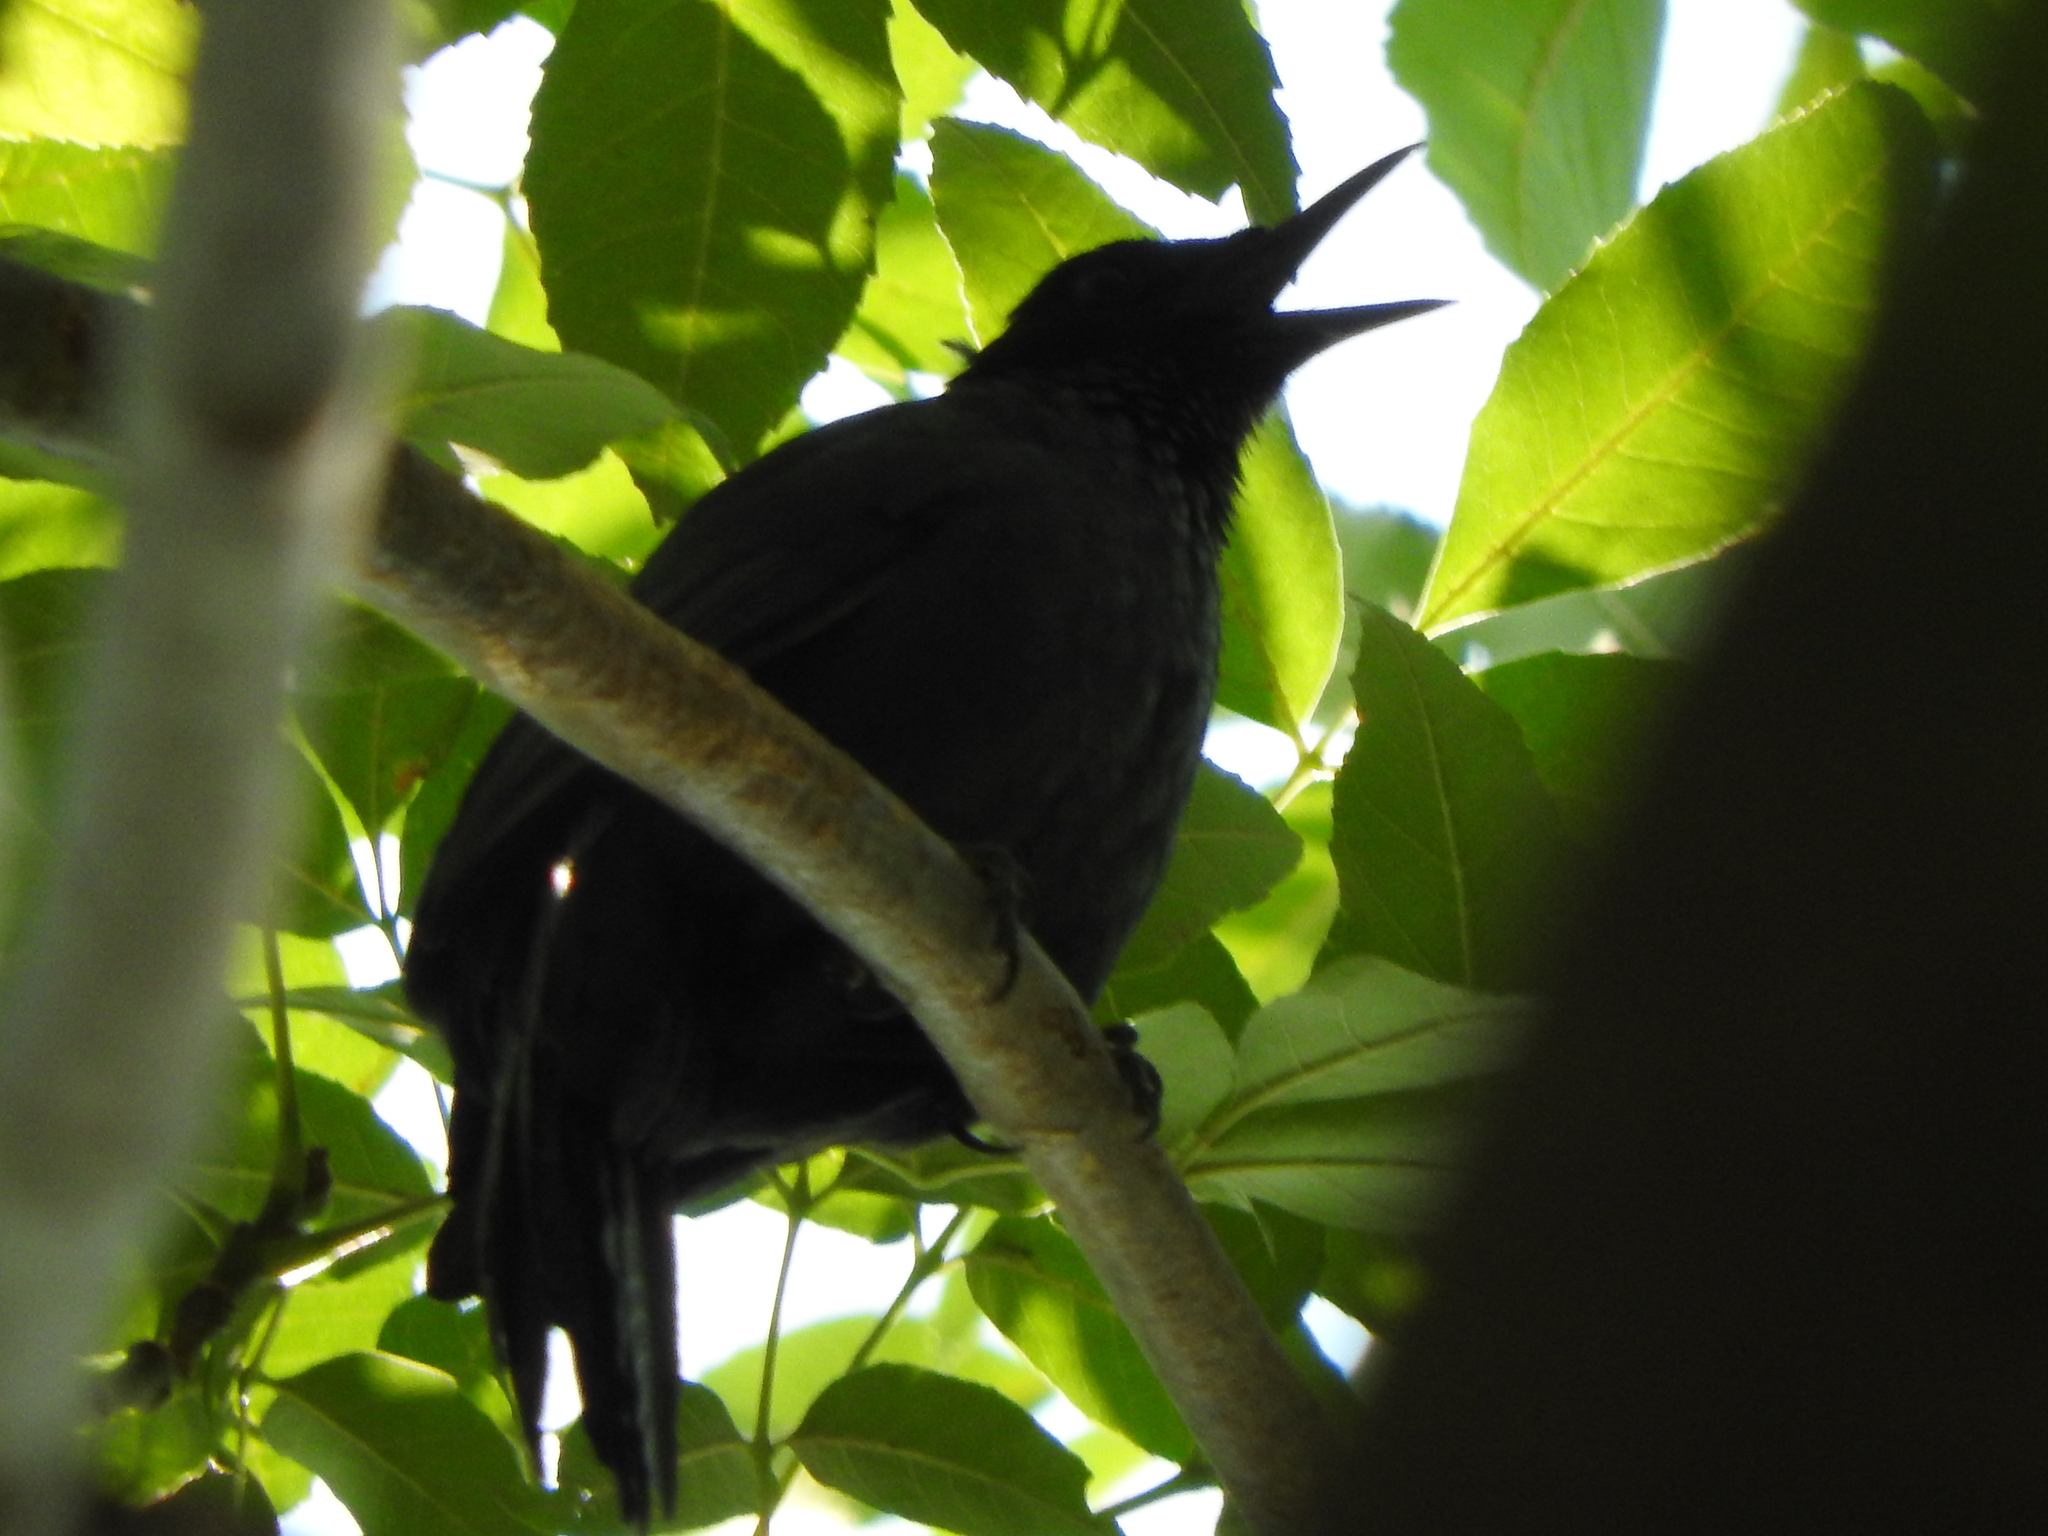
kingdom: Animalia
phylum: Chordata
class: Aves
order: Passeriformes
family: Mimidae
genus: Melanotis
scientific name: Melanotis caerulescens
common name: Blue mockingbird
